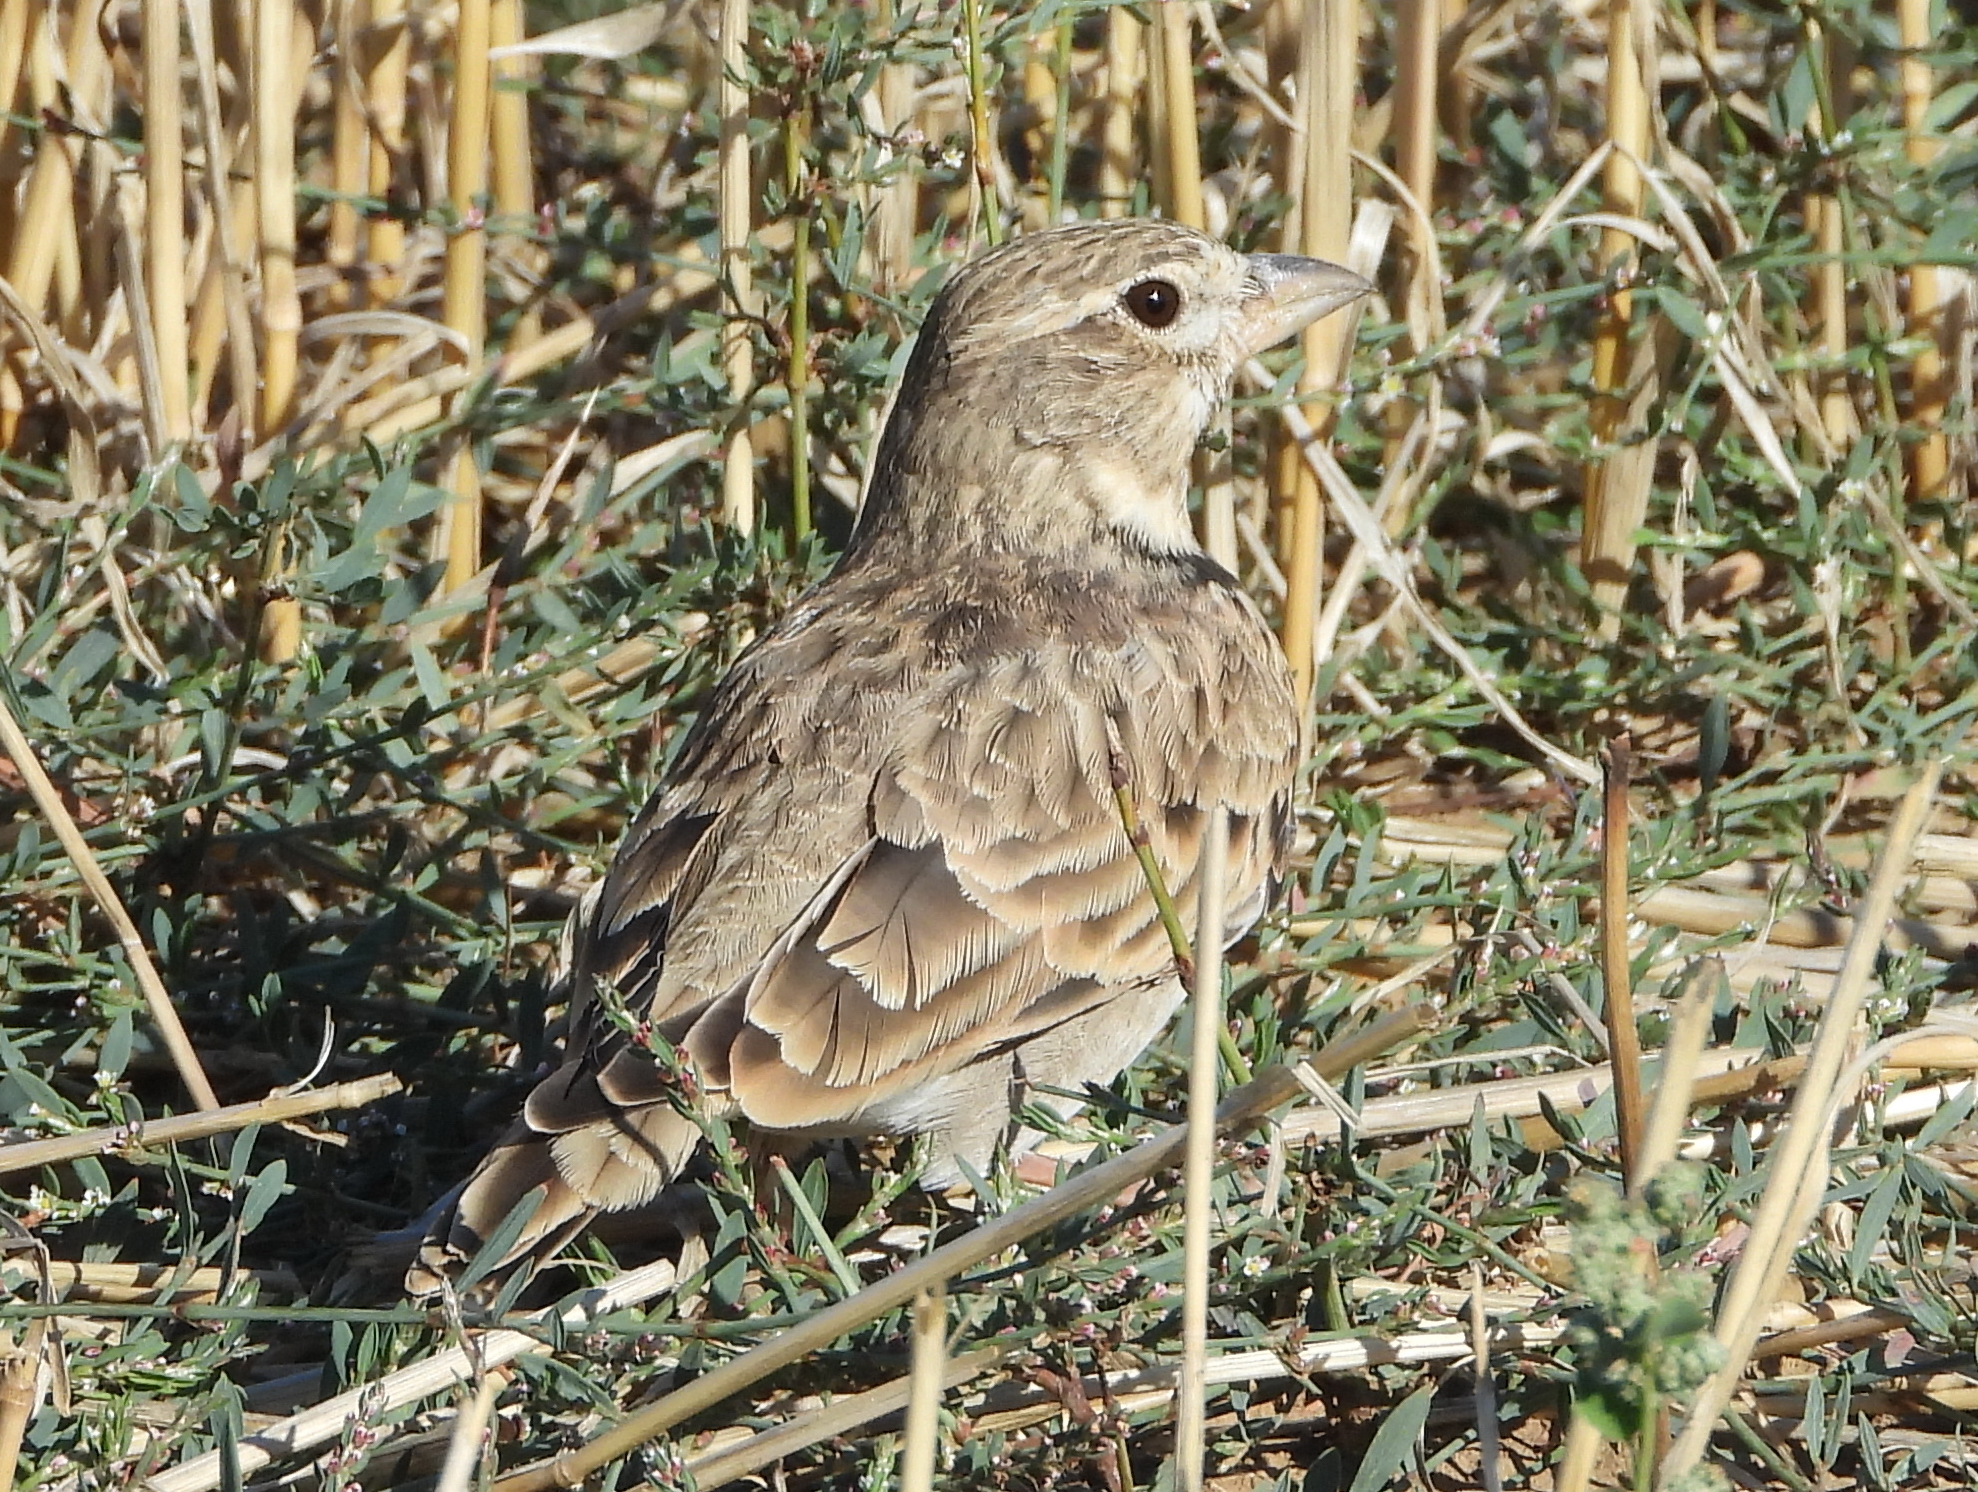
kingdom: Animalia
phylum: Chordata
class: Aves
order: Passeriformes
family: Alaudidae
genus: Melanocorypha
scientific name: Melanocorypha calandra
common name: Calandra lark
